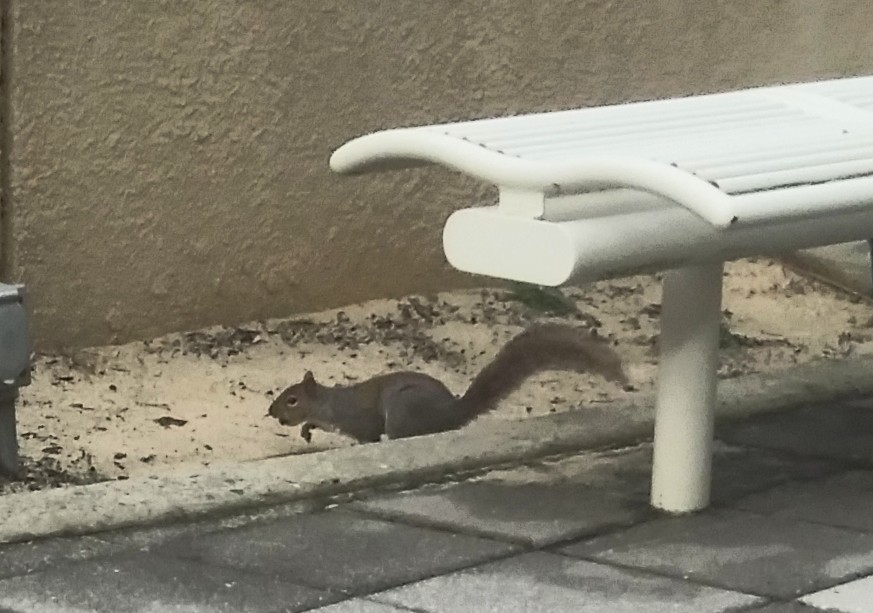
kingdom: Animalia
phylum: Chordata
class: Mammalia
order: Rodentia
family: Sciuridae
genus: Sciurus
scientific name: Sciurus carolinensis
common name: Eastern gray squirrel
